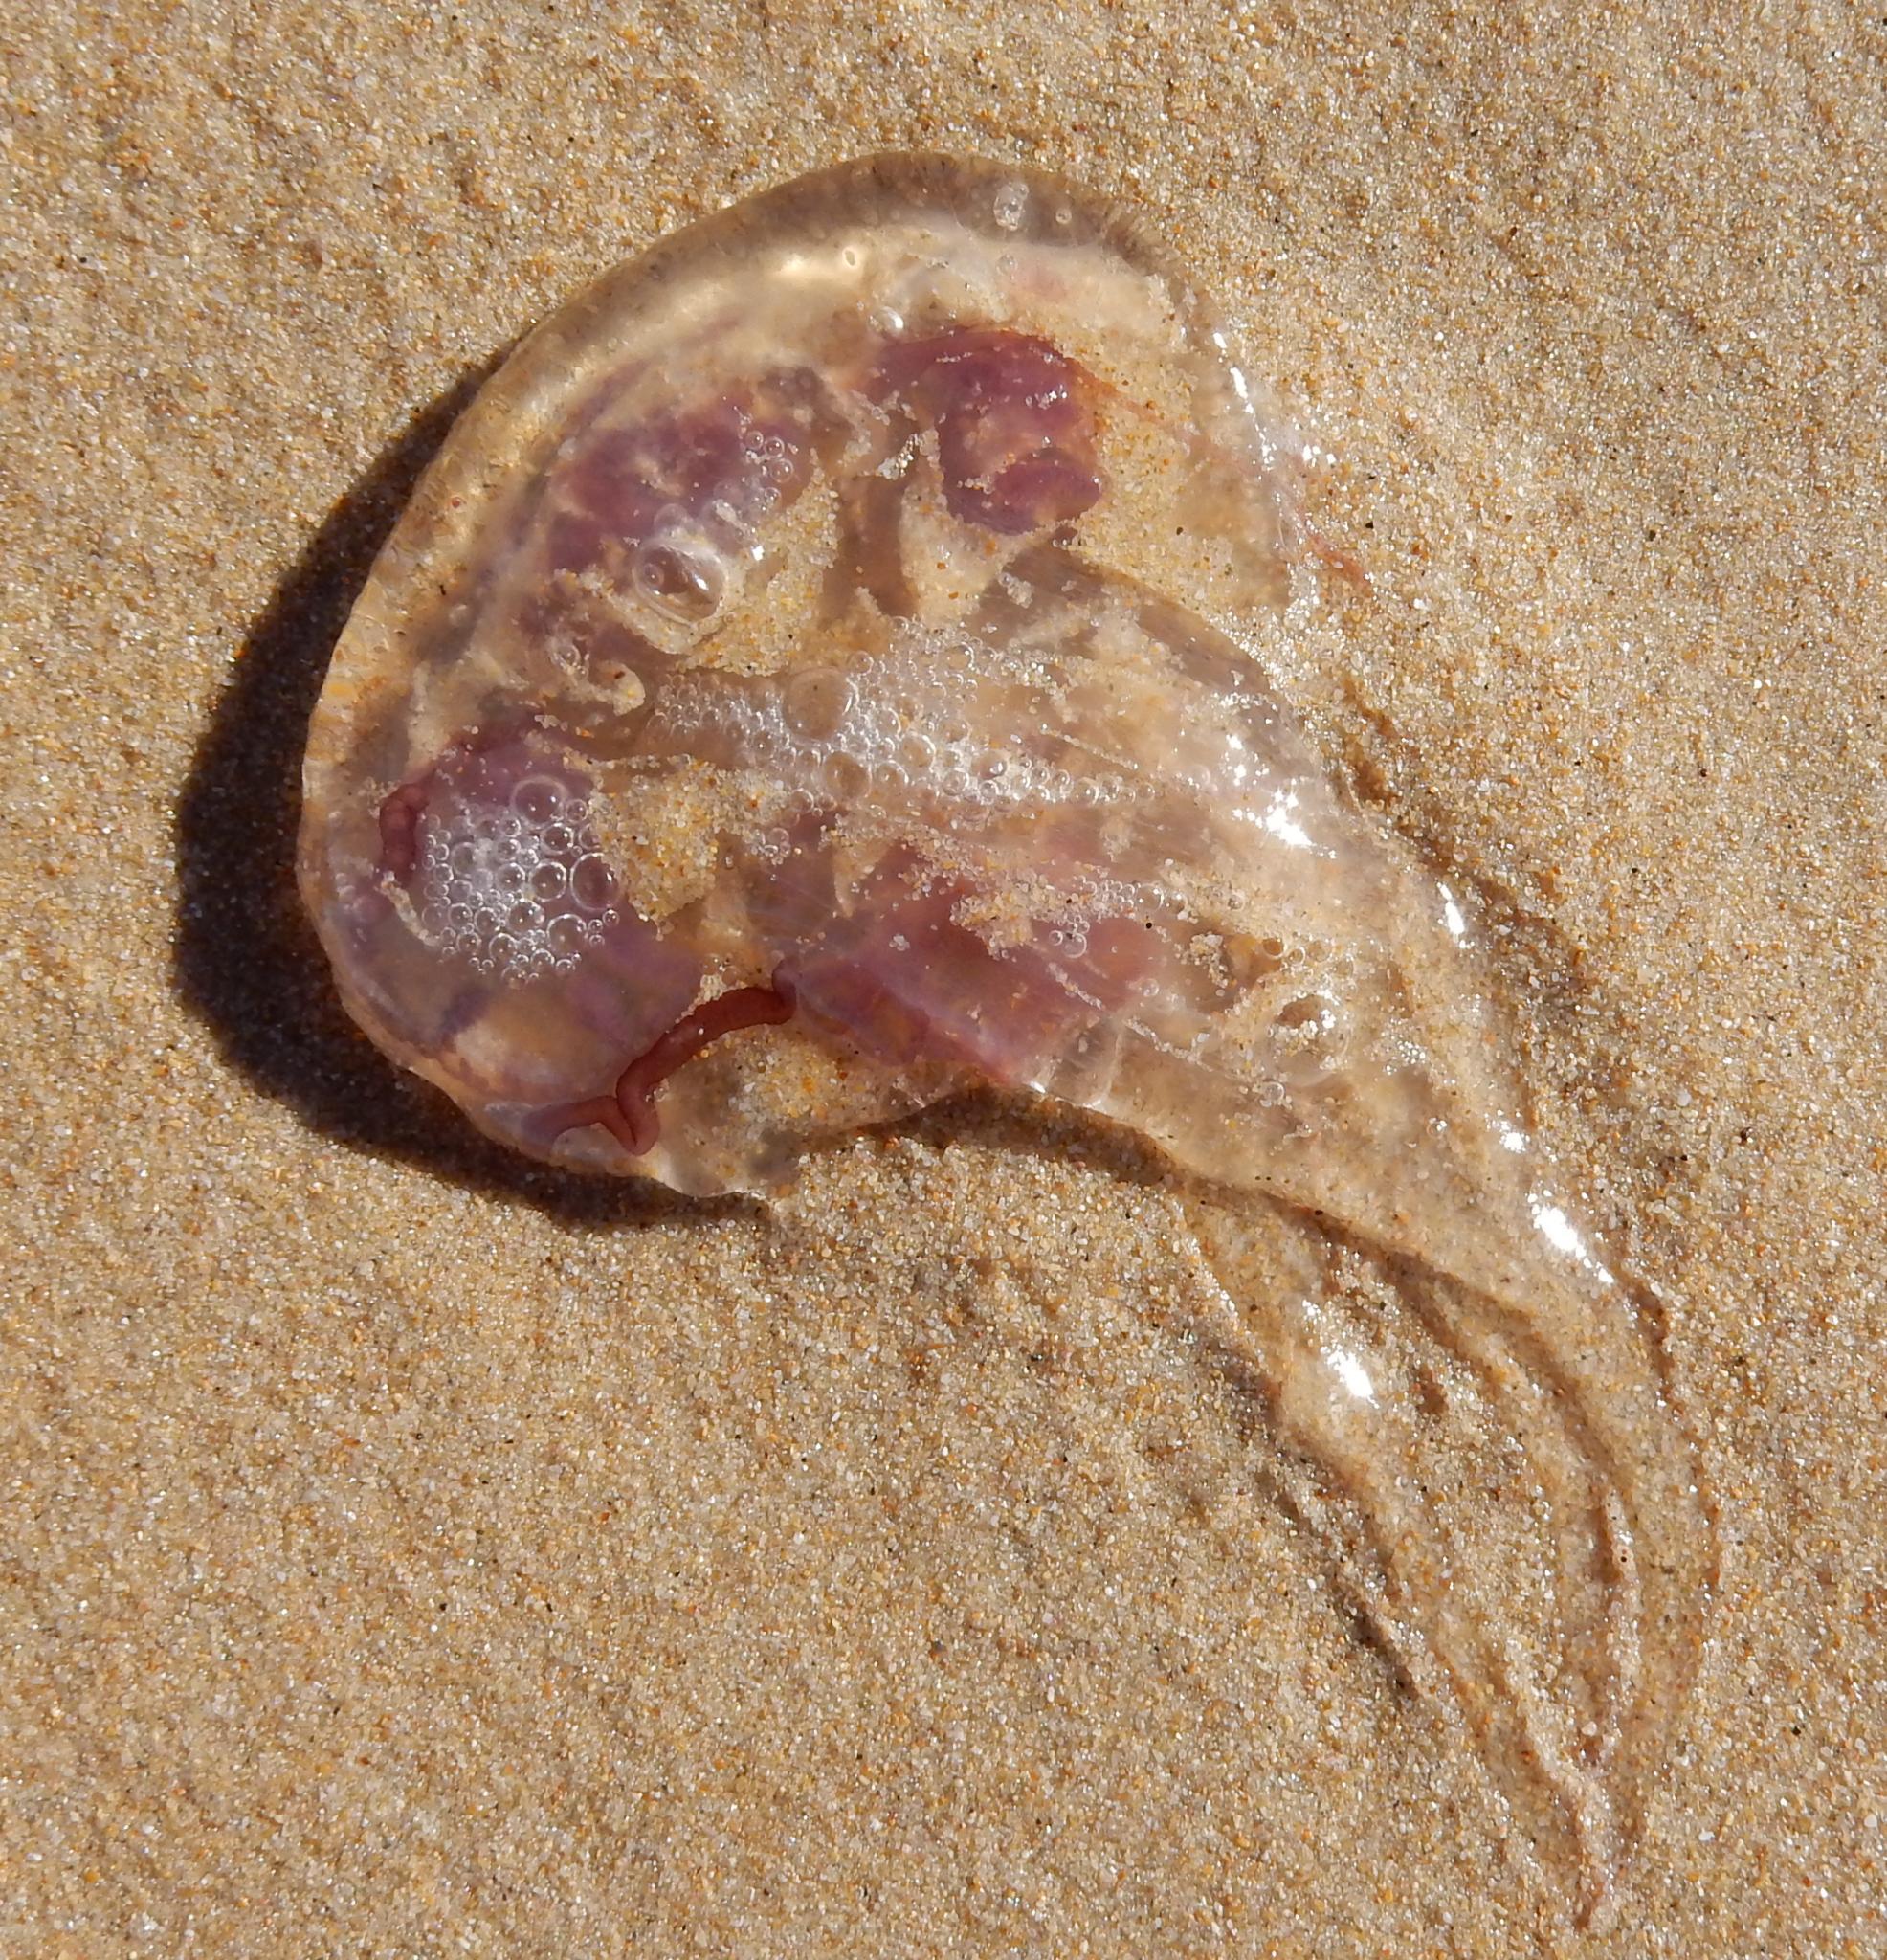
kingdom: Animalia
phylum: Cnidaria
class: Scyphozoa
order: Semaeostomeae
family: Pelagiidae
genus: Pelagia
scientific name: Pelagia noctiluca
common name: Mauve stinger
